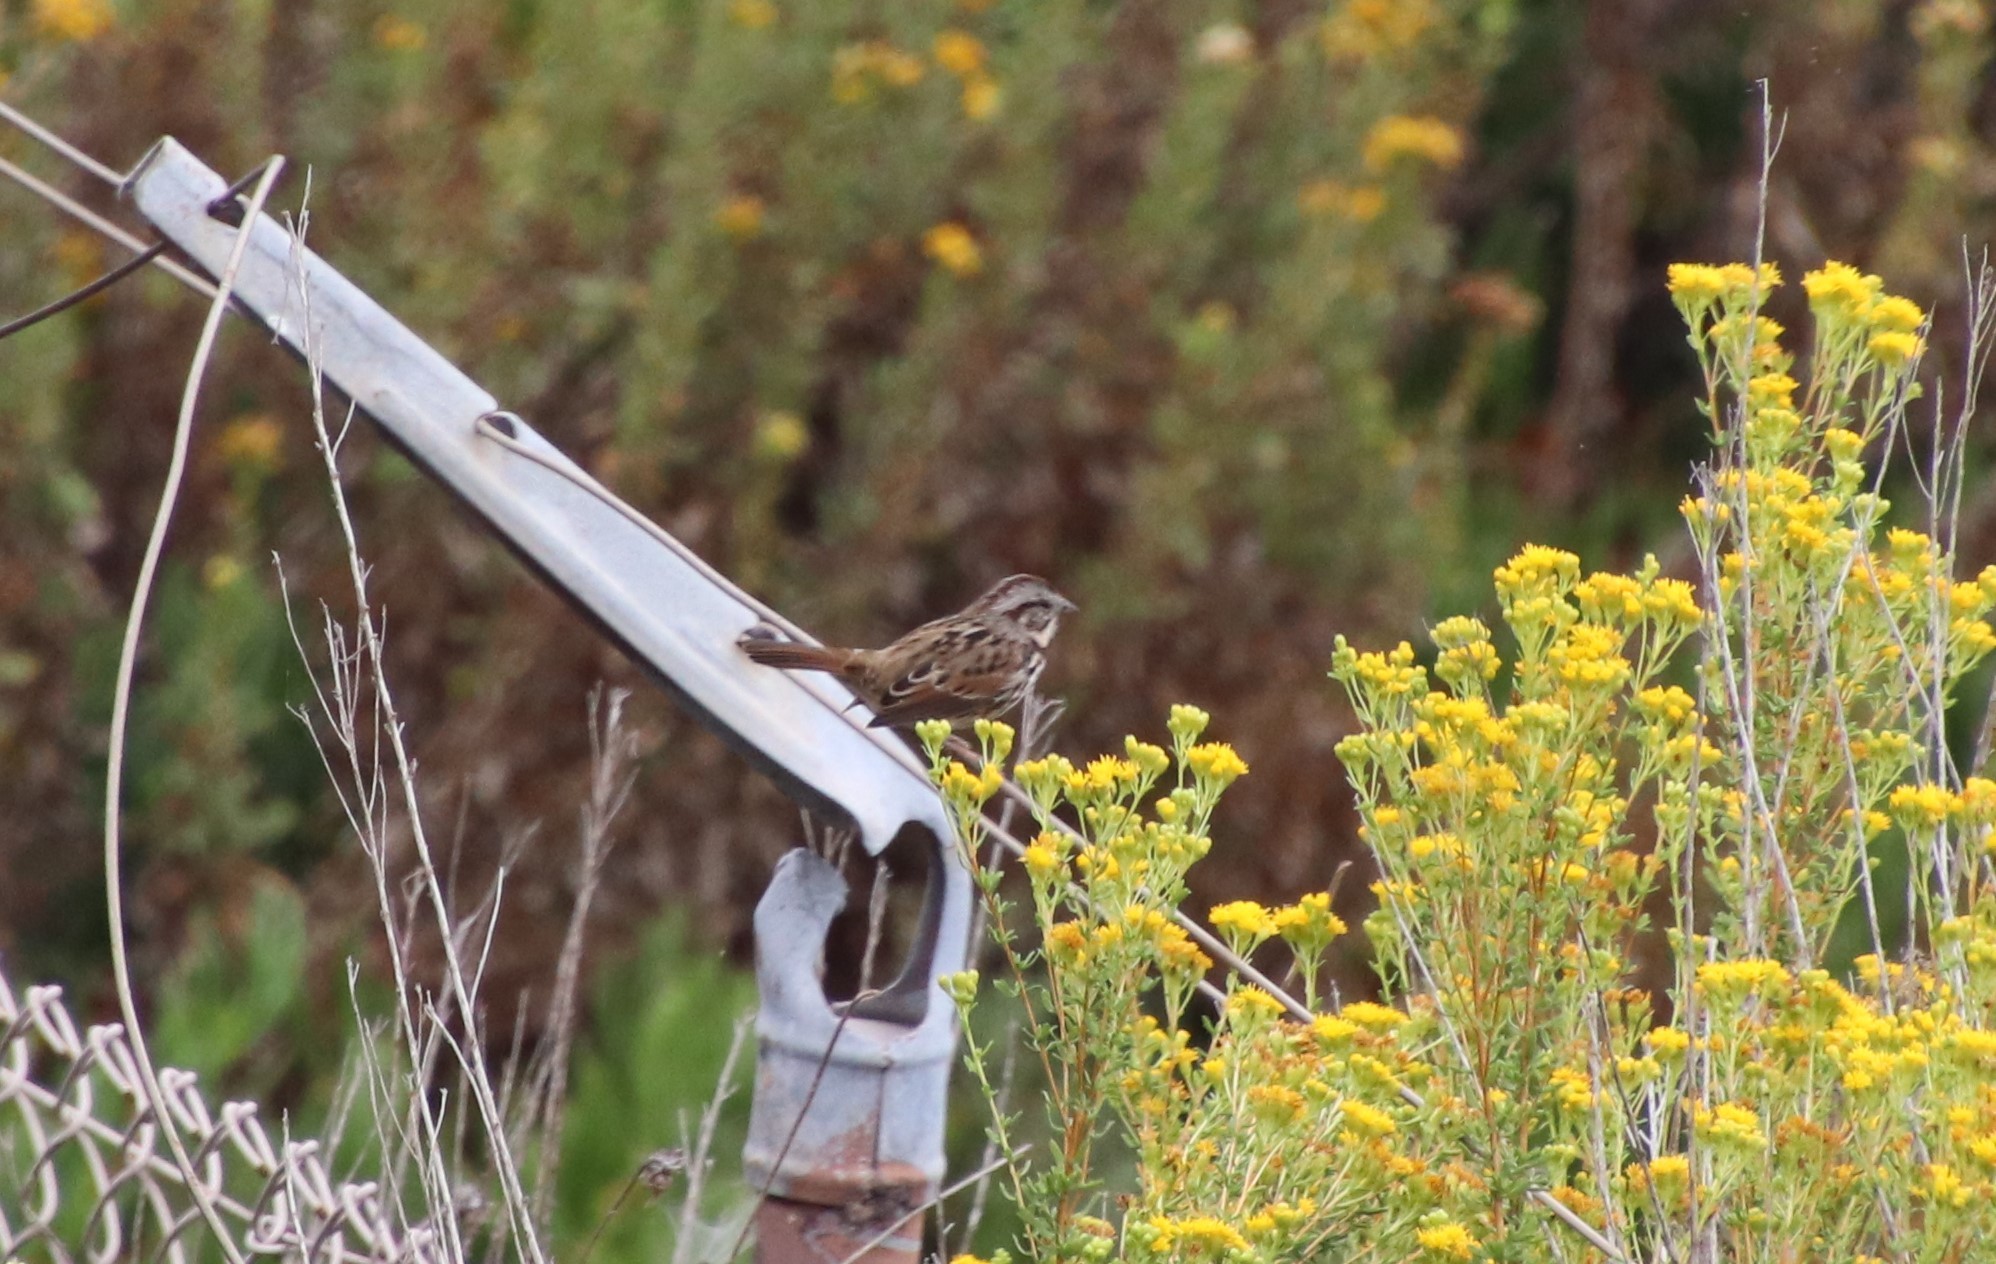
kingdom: Animalia
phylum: Chordata
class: Aves
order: Passeriformes
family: Passerellidae
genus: Melospiza
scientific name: Melospiza melodia
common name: Song sparrow
